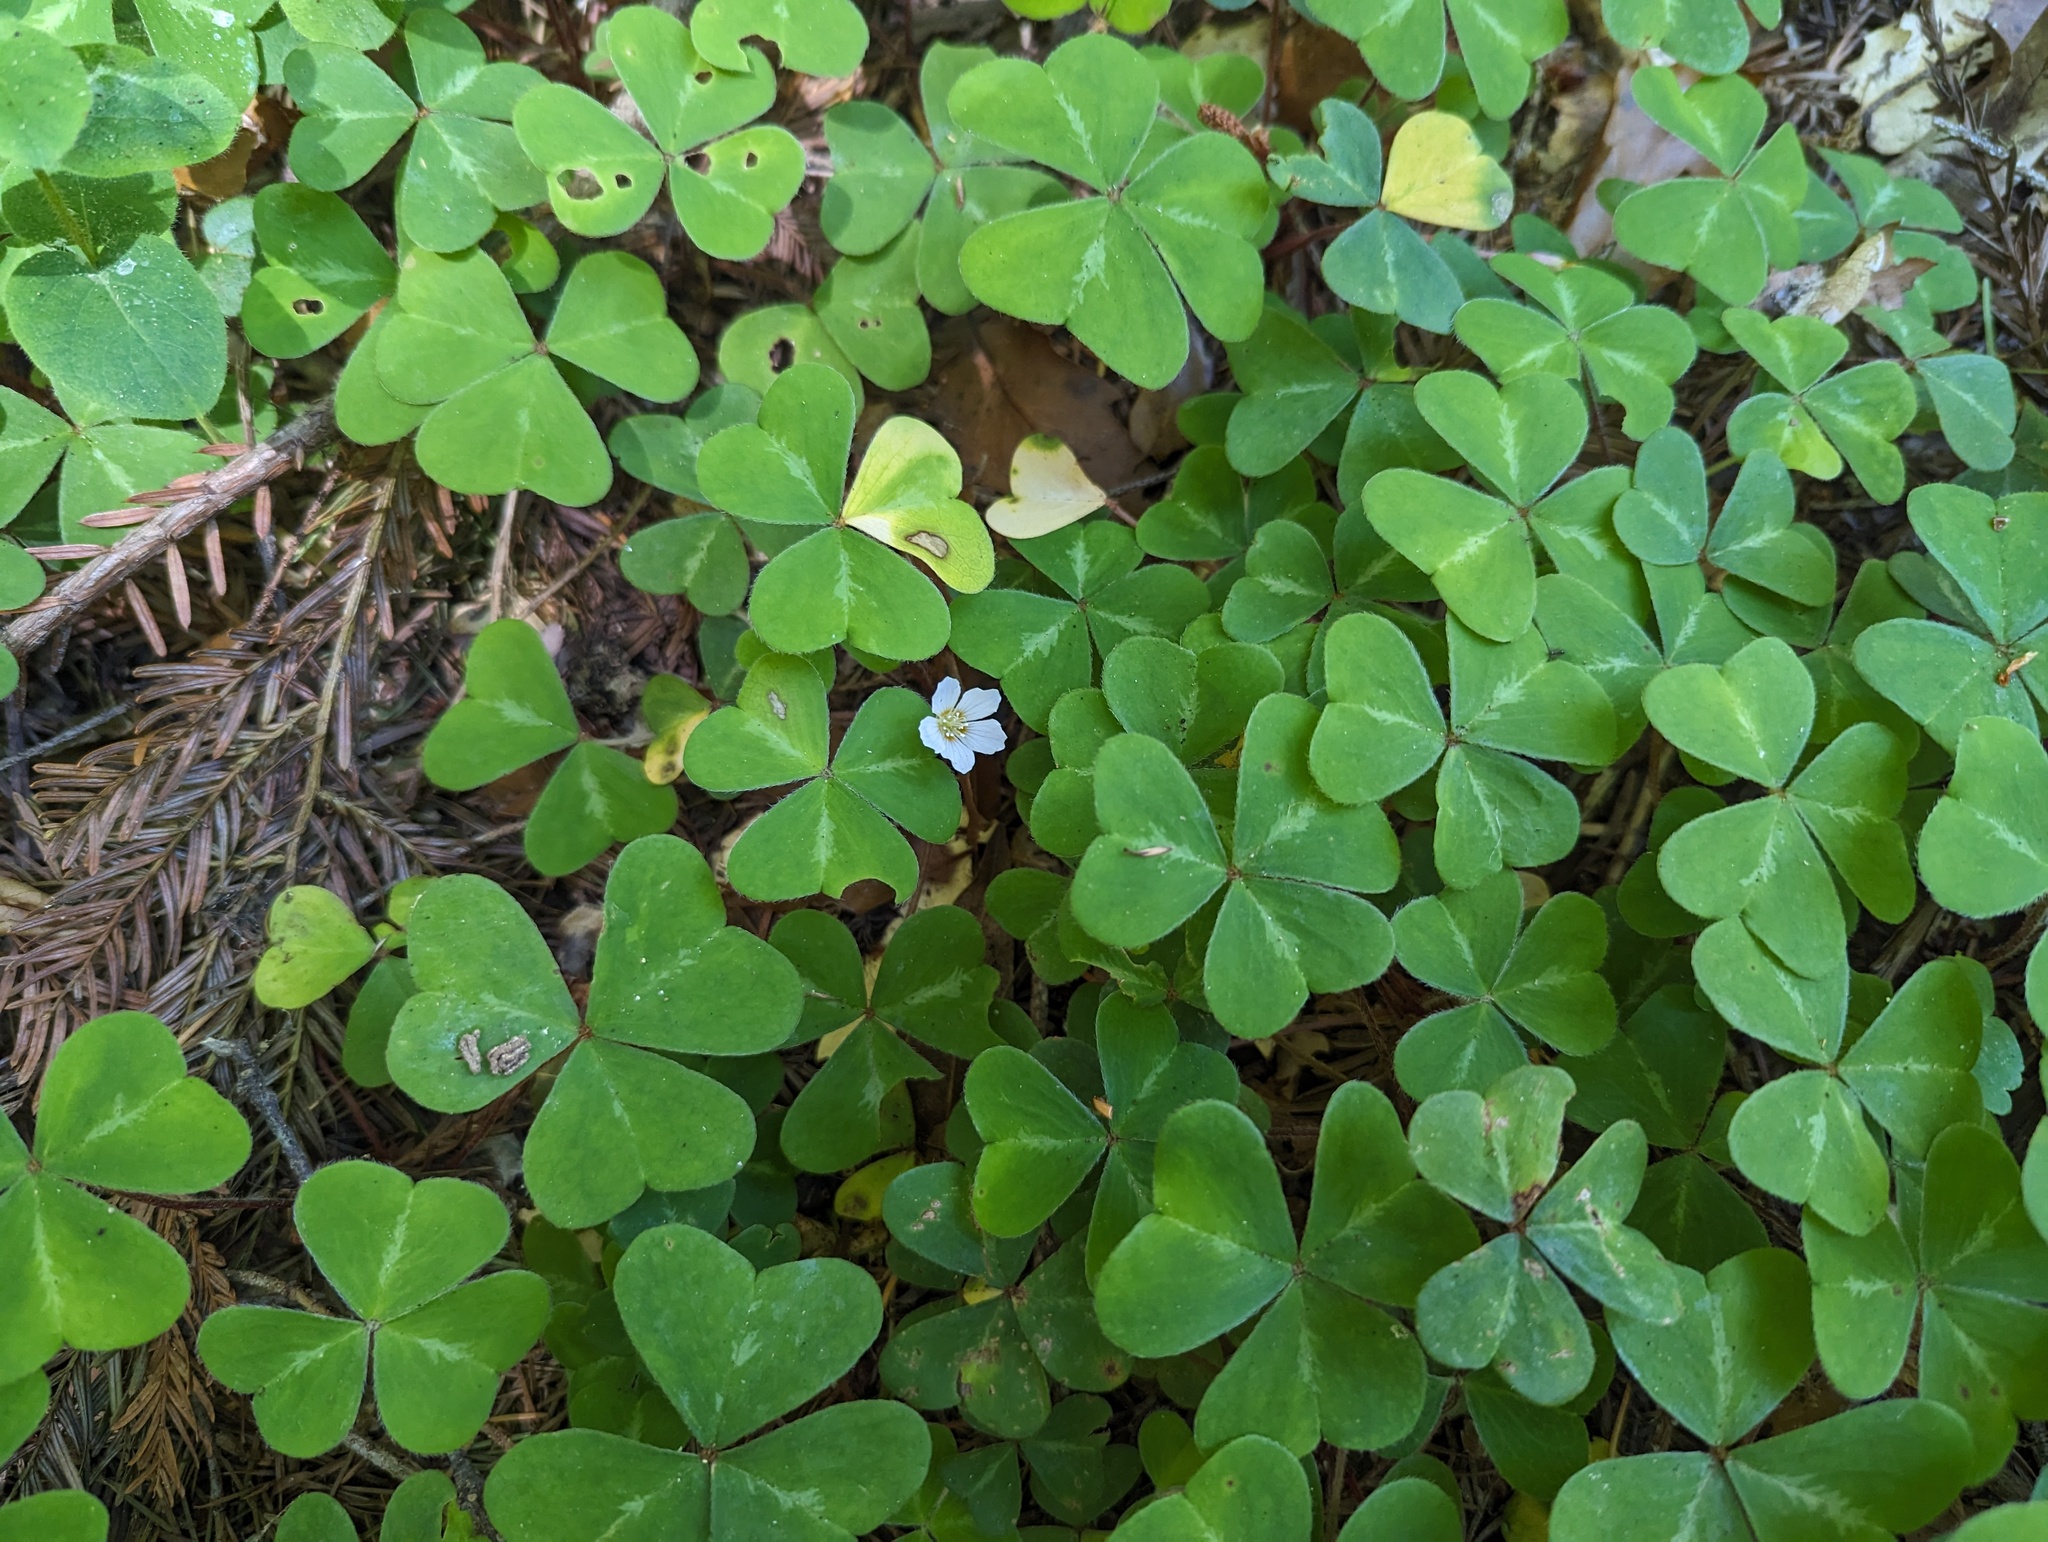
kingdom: Plantae
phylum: Tracheophyta
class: Magnoliopsida
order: Oxalidales
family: Oxalidaceae
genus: Oxalis
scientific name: Oxalis oregana
